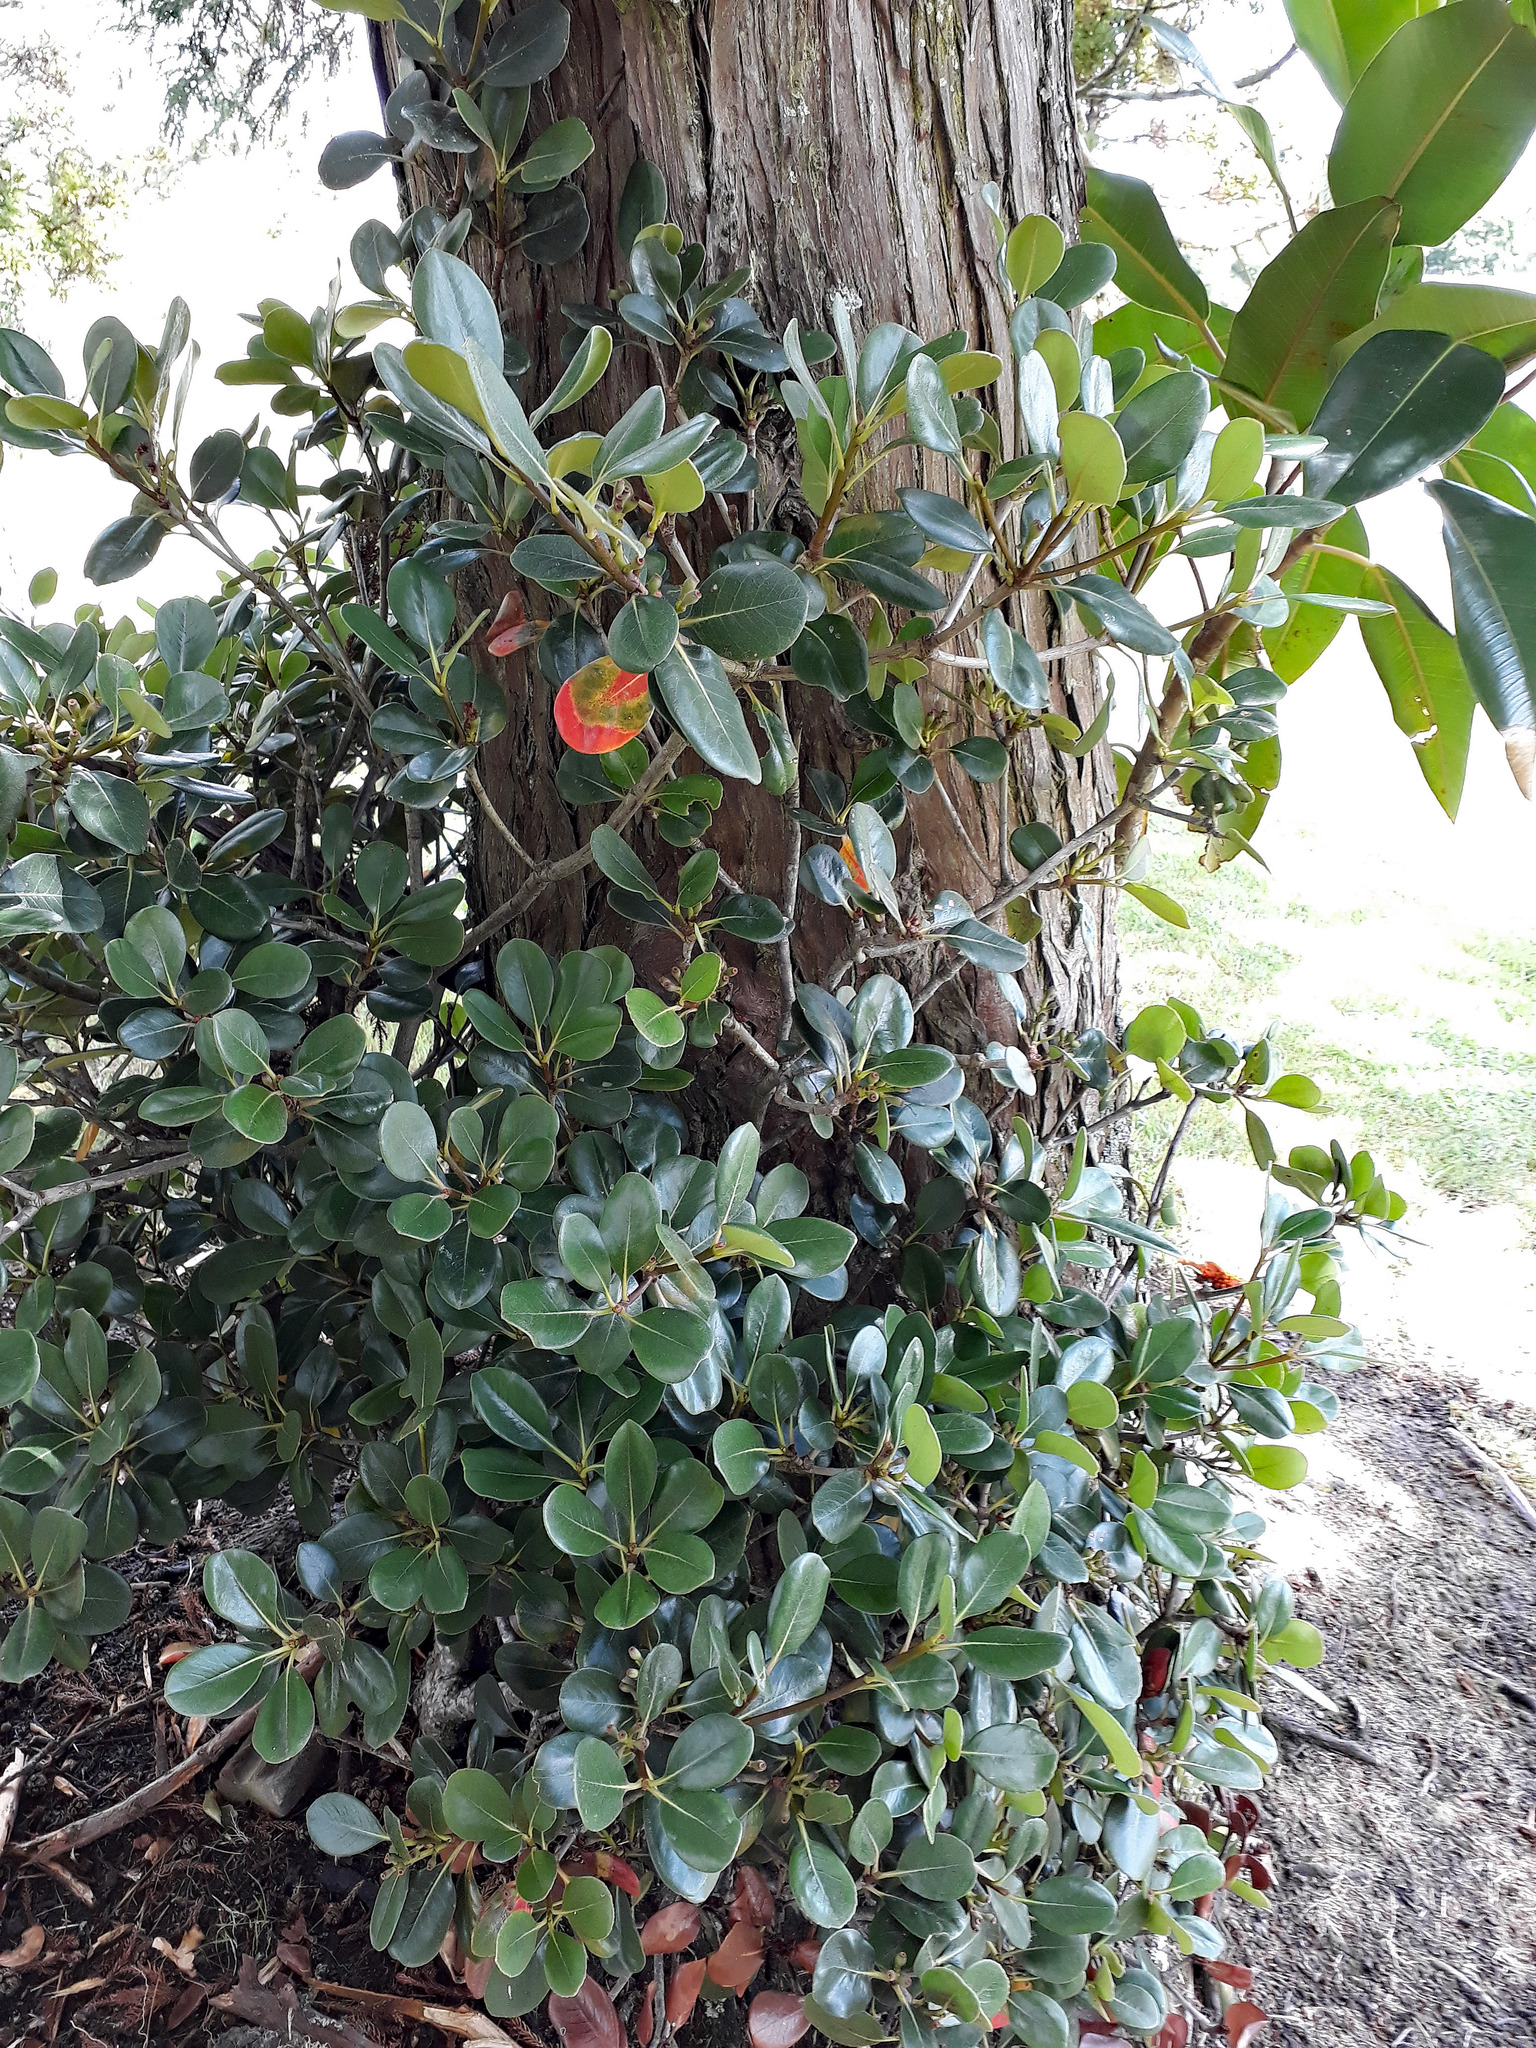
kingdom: Plantae
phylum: Tracheophyta
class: Magnoliopsida
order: Rosales
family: Rosaceae
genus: Rhaphiolepis
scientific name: Rhaphiolepis indica
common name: India-hawthorn
